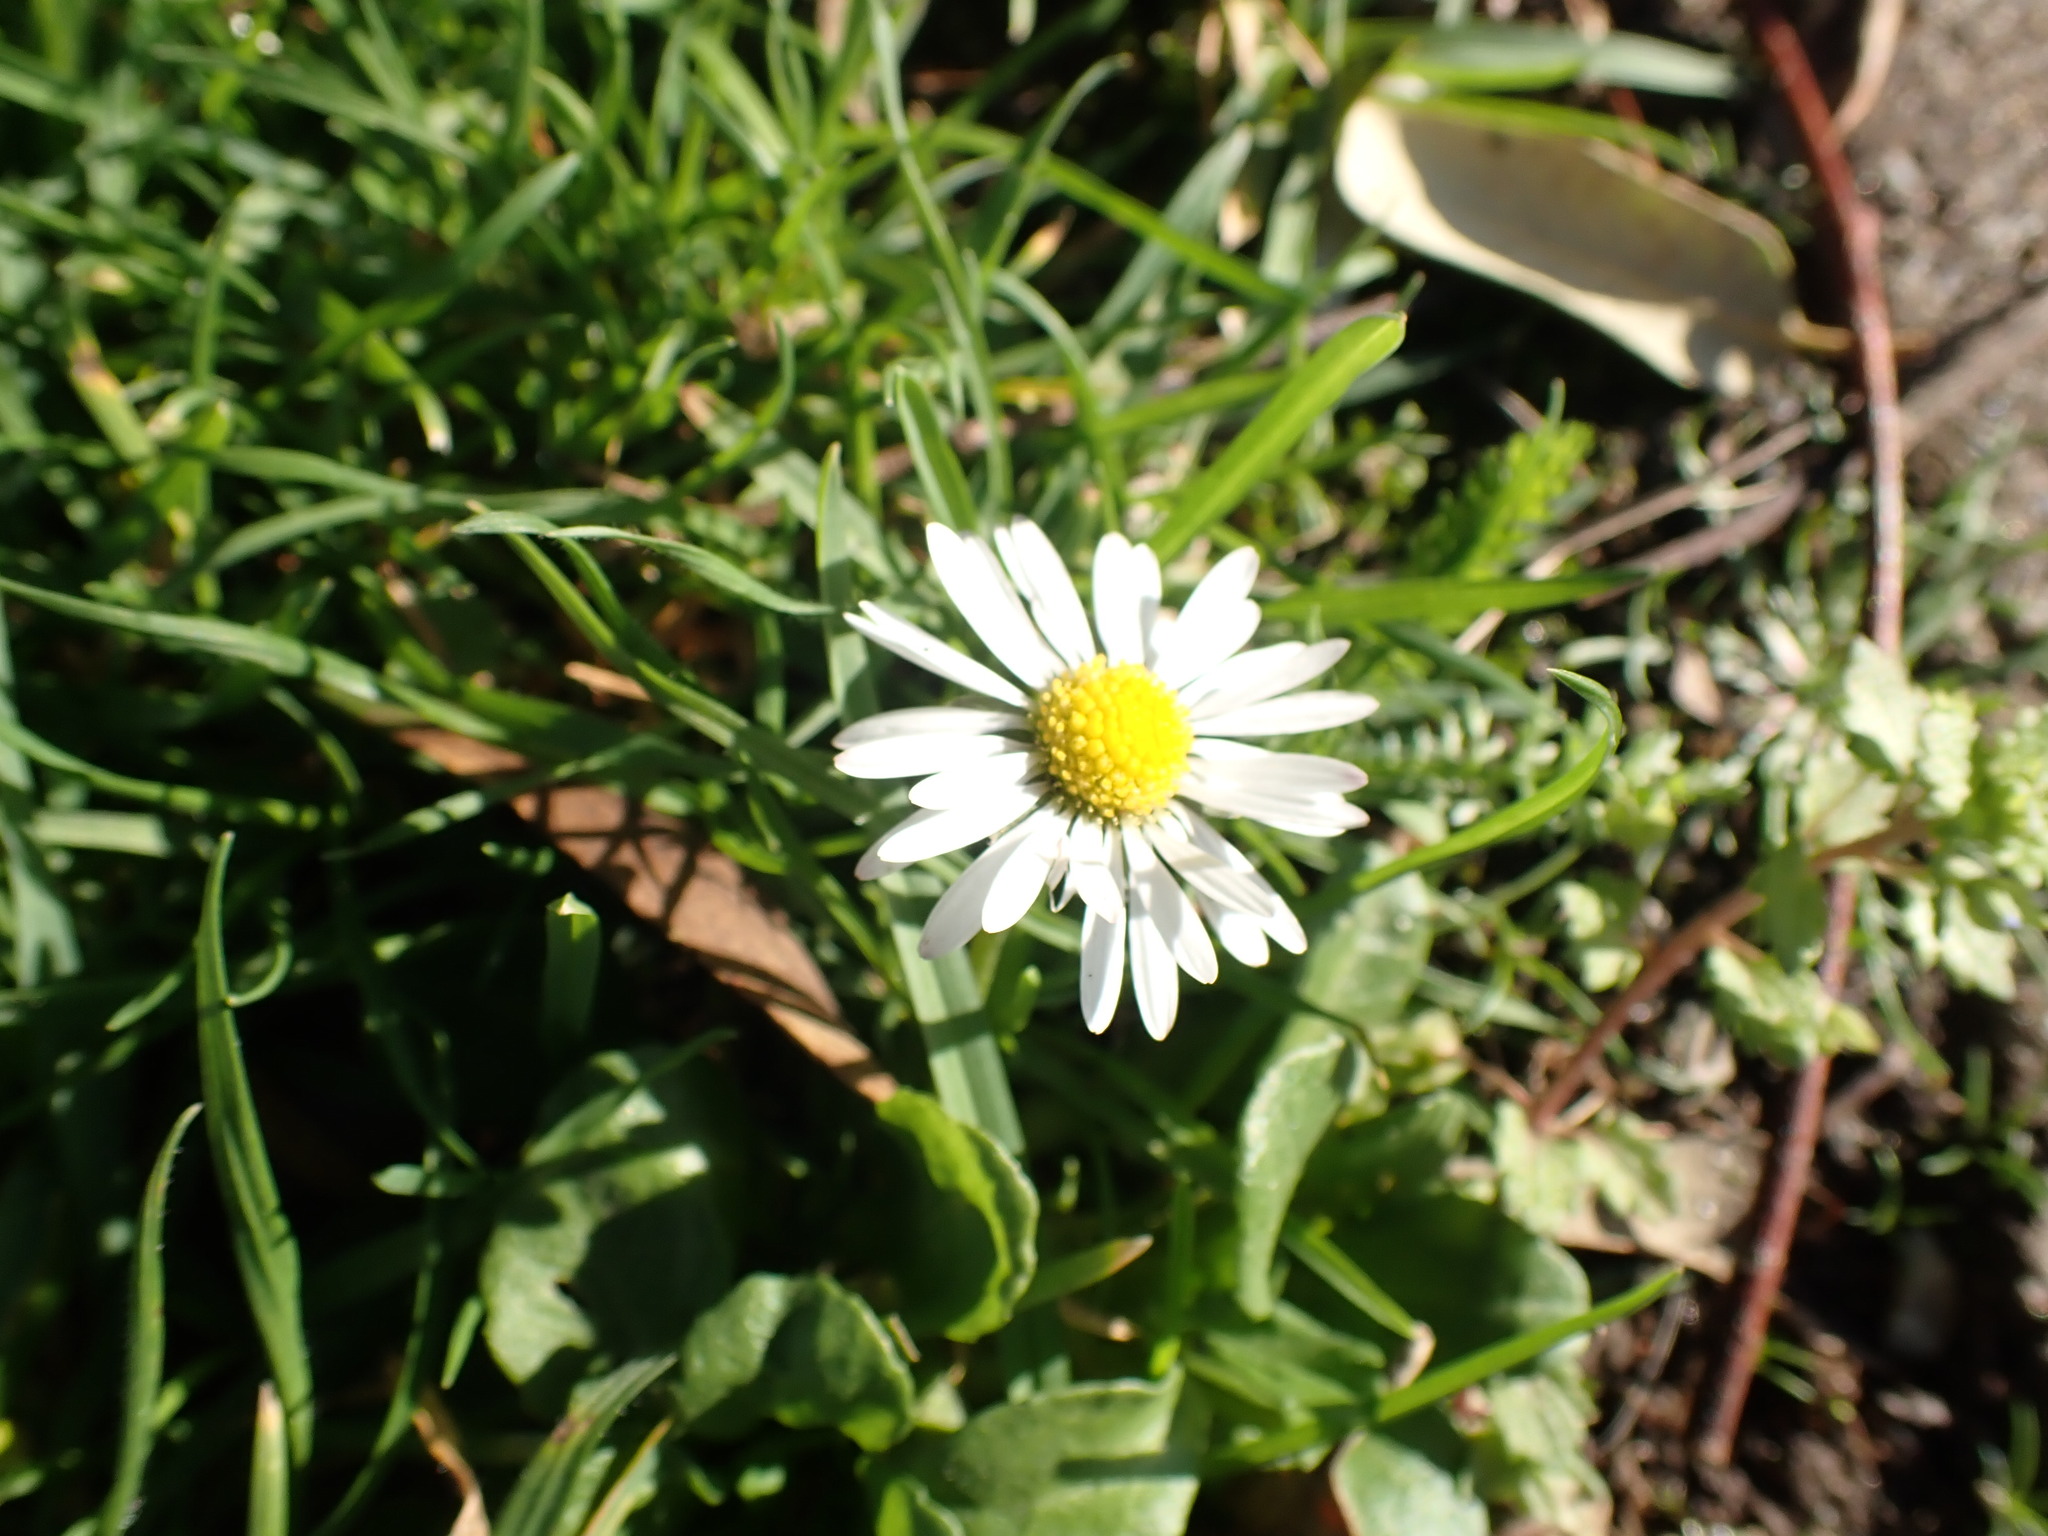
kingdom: Plantae
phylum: Tracheophyta
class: Magnoliopsida
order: Asterales
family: Asteraceae
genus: Bellis
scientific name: Bellis perennis
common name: Lawndaisy
